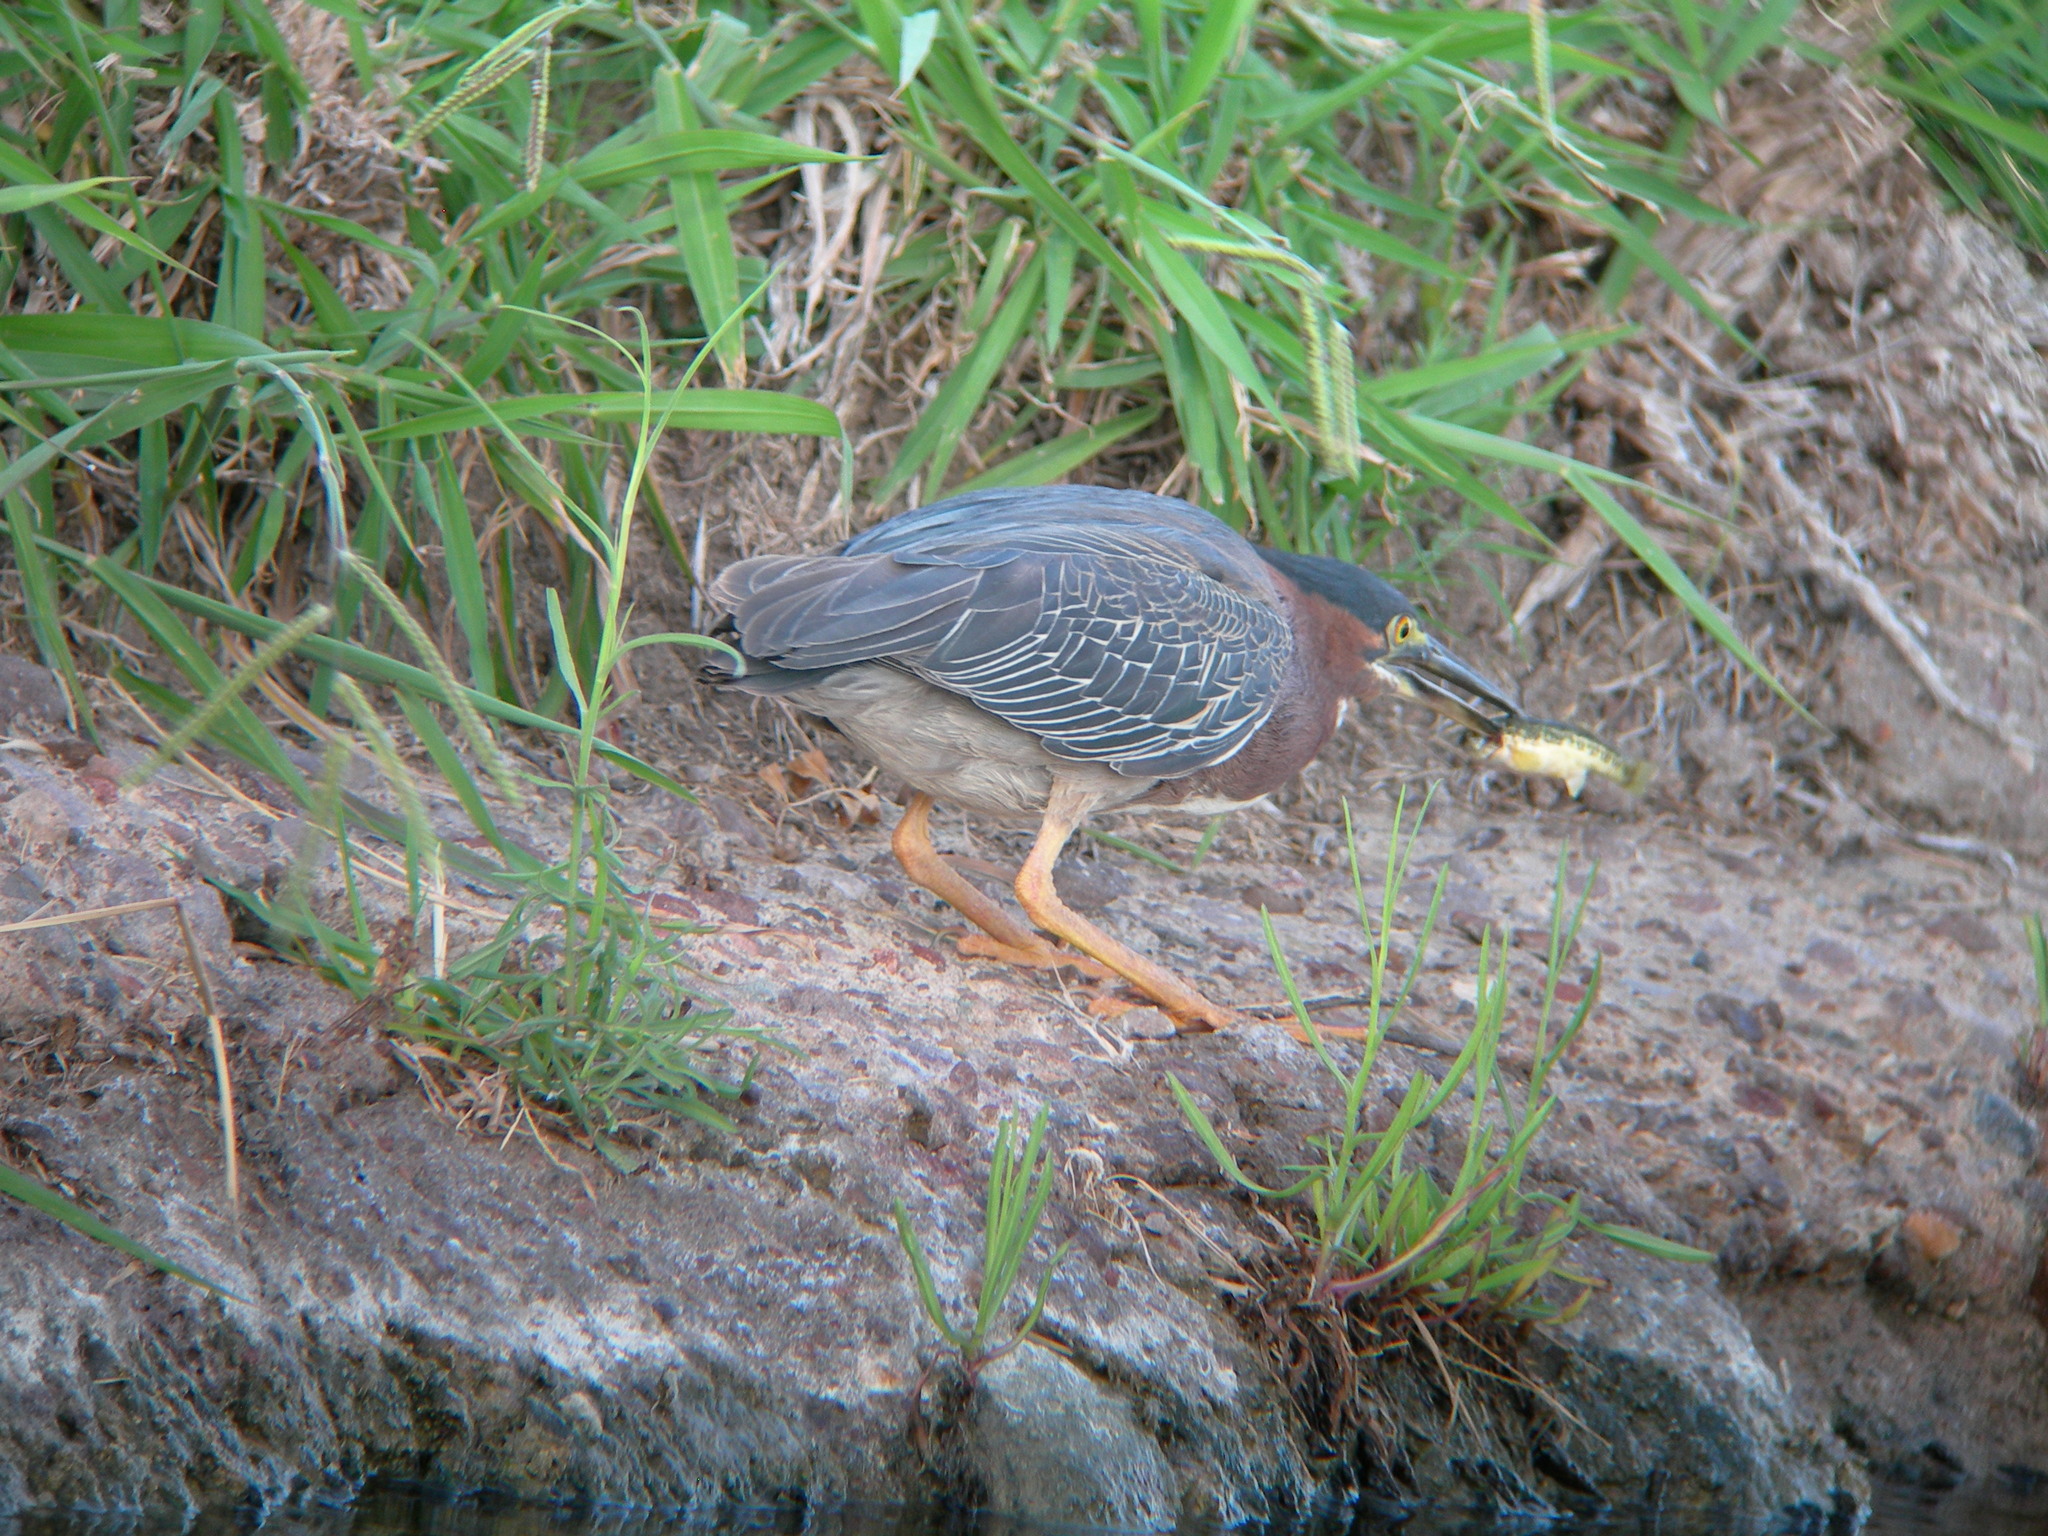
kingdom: Animalia
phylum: Chordata
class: Aves
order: Pelecaniformes
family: Ardeidae
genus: Butorides
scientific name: Butorides virescens
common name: Green heron
